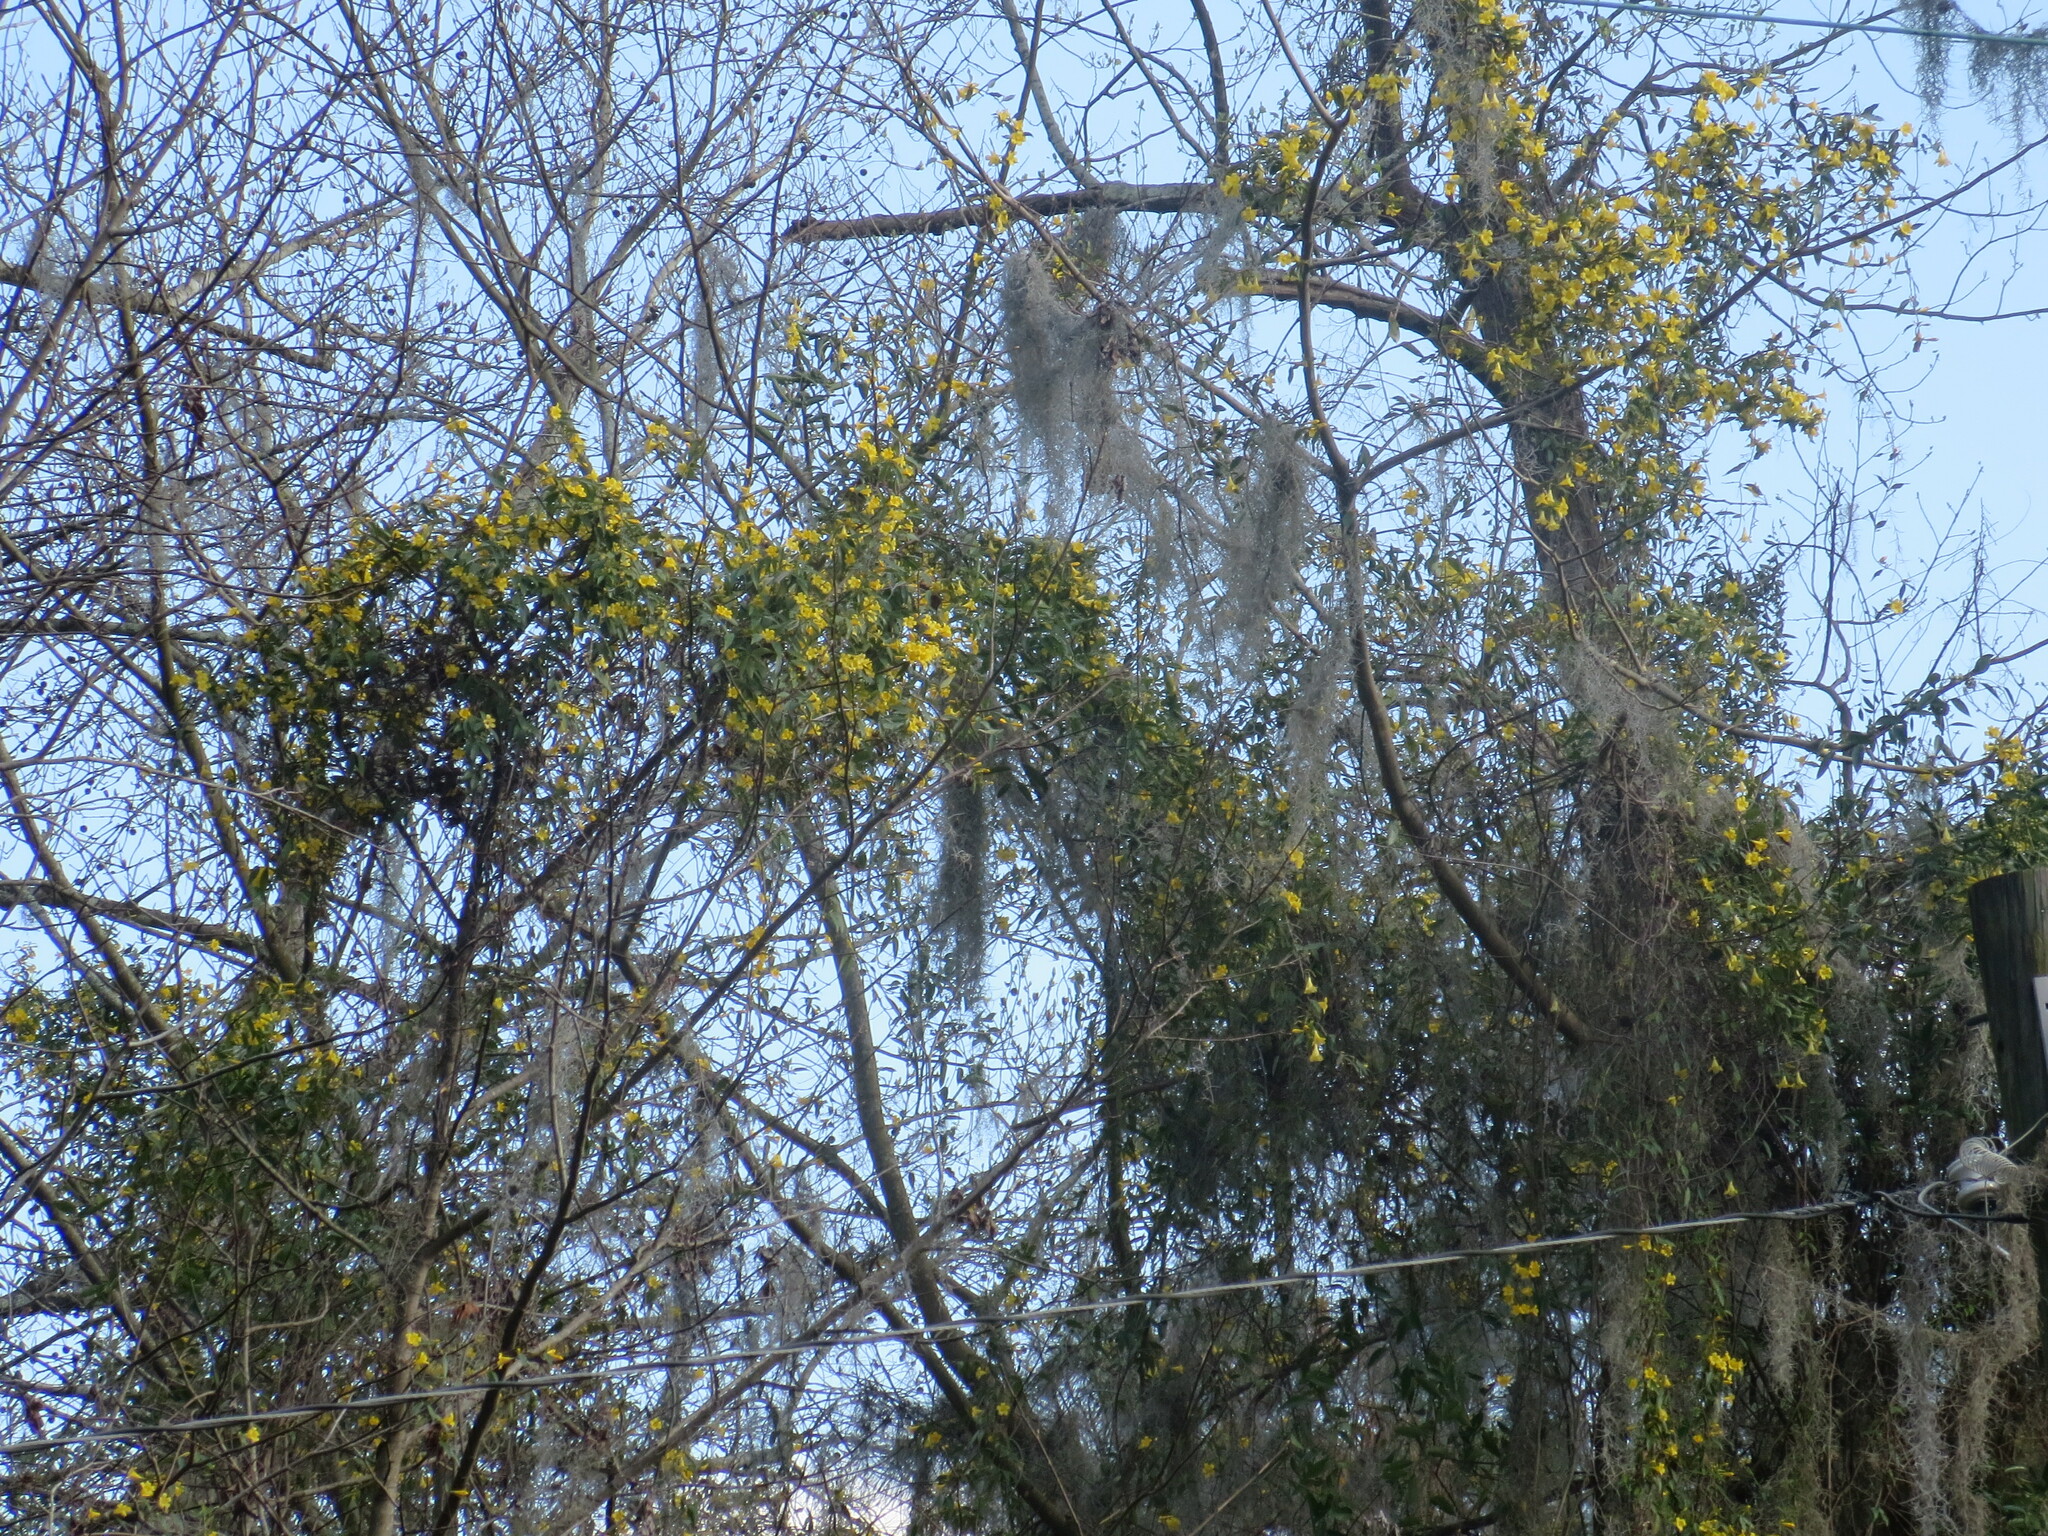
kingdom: Plantae
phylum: Tracheophyta
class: Magnoliopsida
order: Gentianales
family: Gelsemiaceae
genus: Gelsemium
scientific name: Gelsemium sempervirens
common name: Carolina-jasmine
